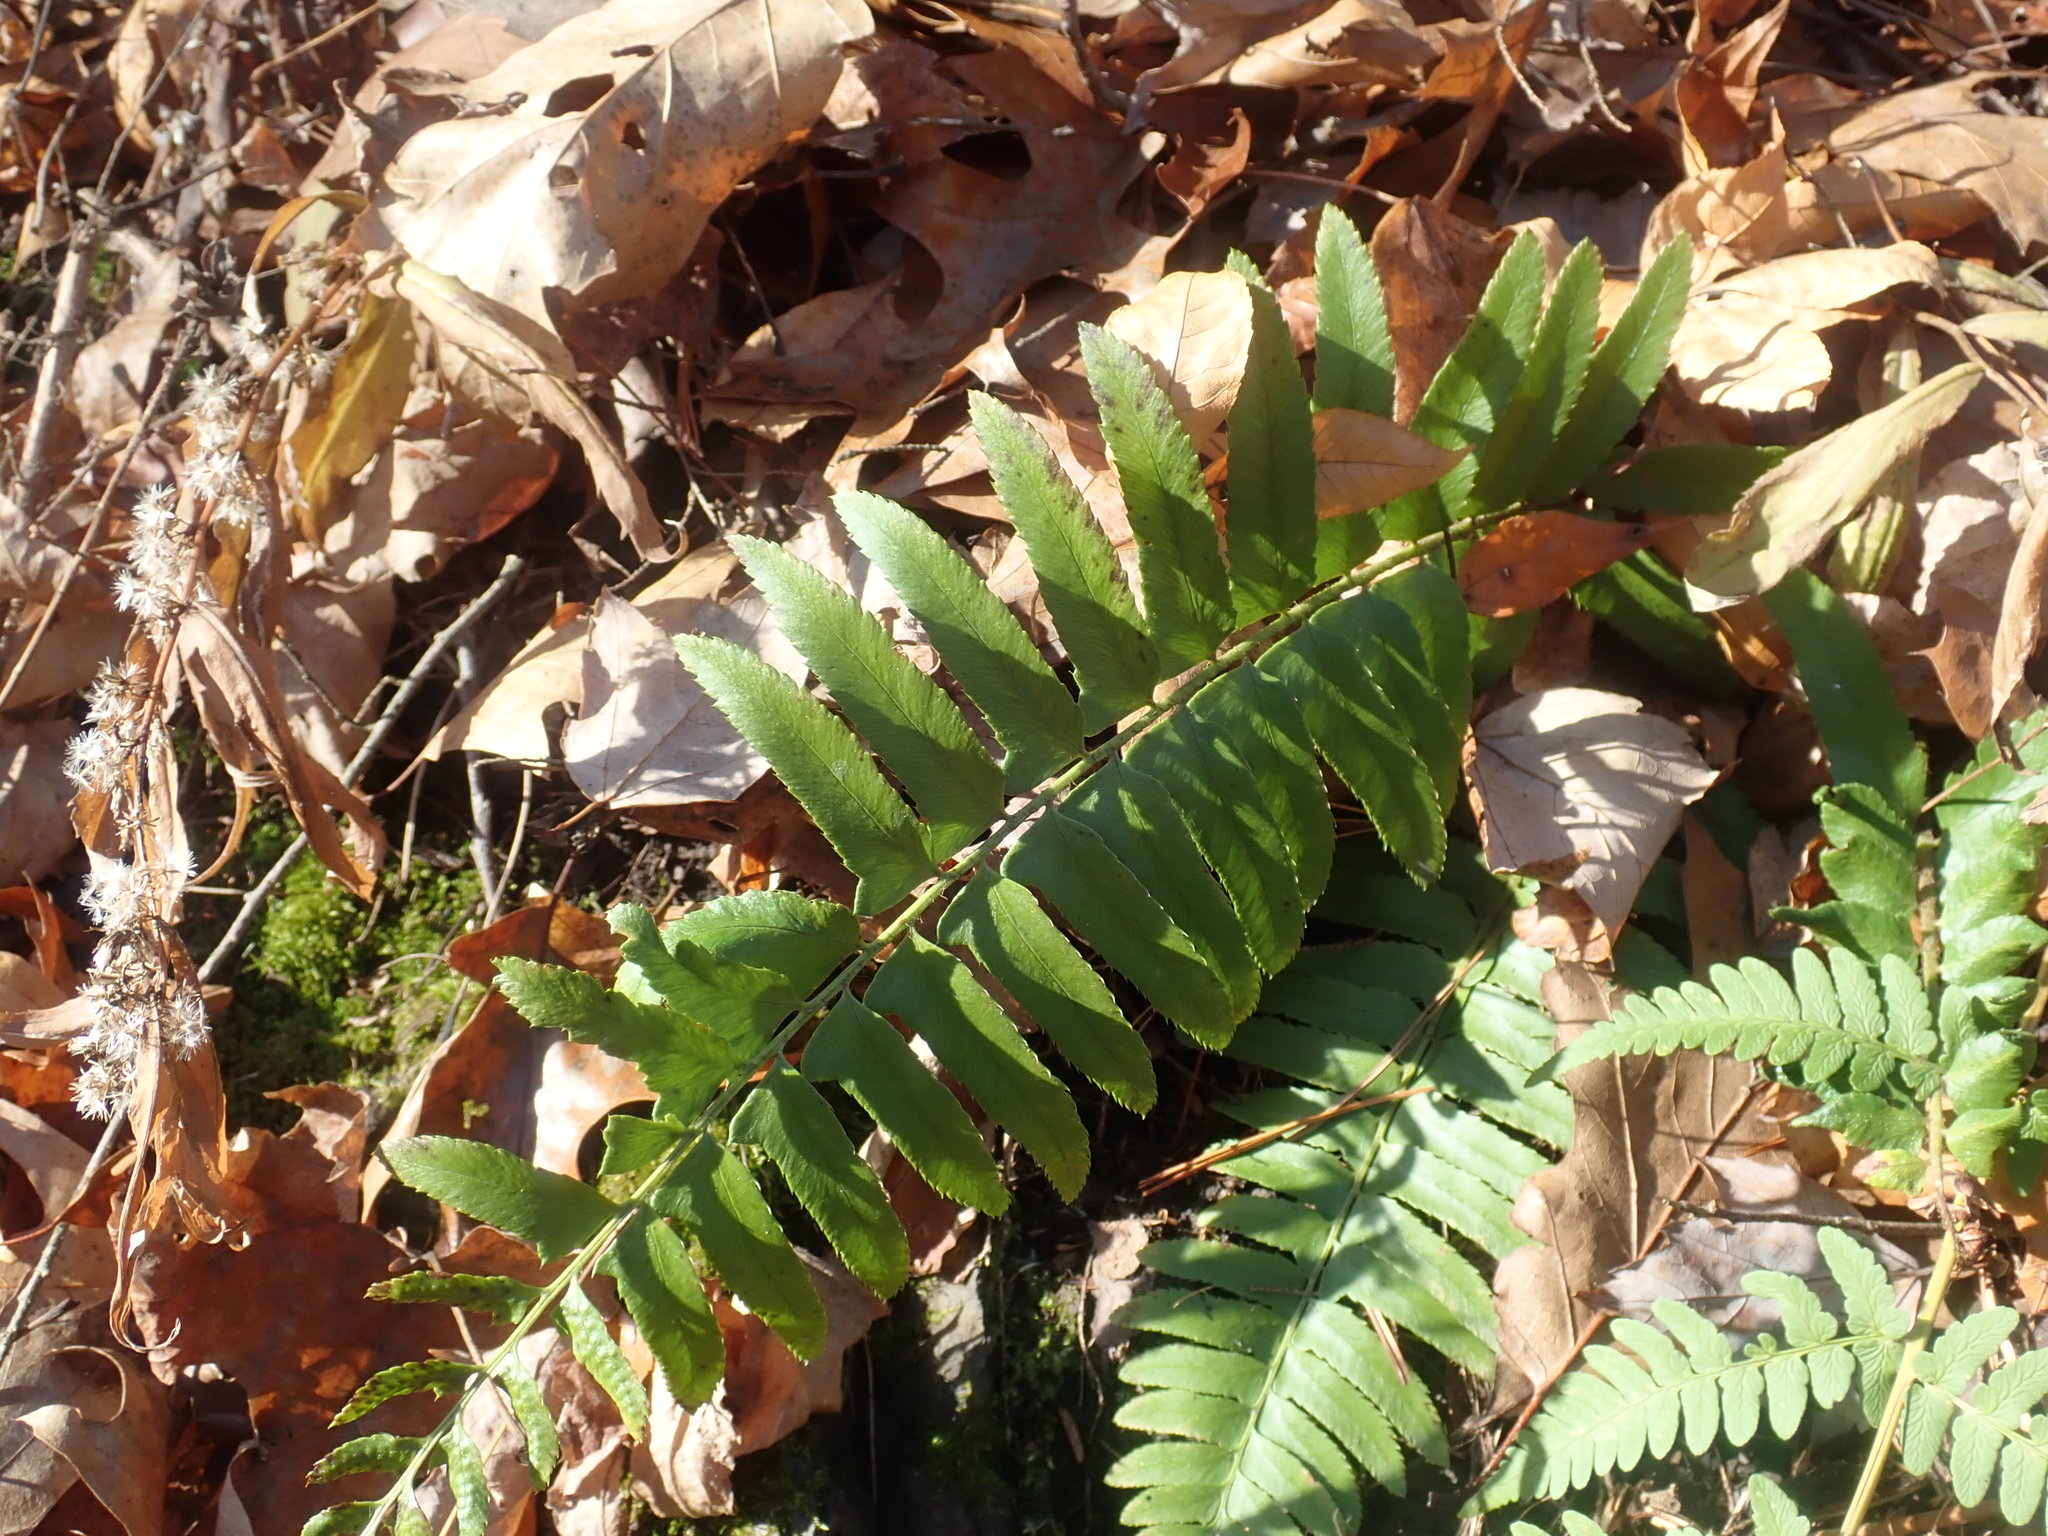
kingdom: Plantae
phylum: Tracheophyta
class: Polypodiopsida
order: Polypodiales
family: Dryopteridaceae
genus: Polystichum
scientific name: Polystichum acrostichoides
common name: Christmas fern
